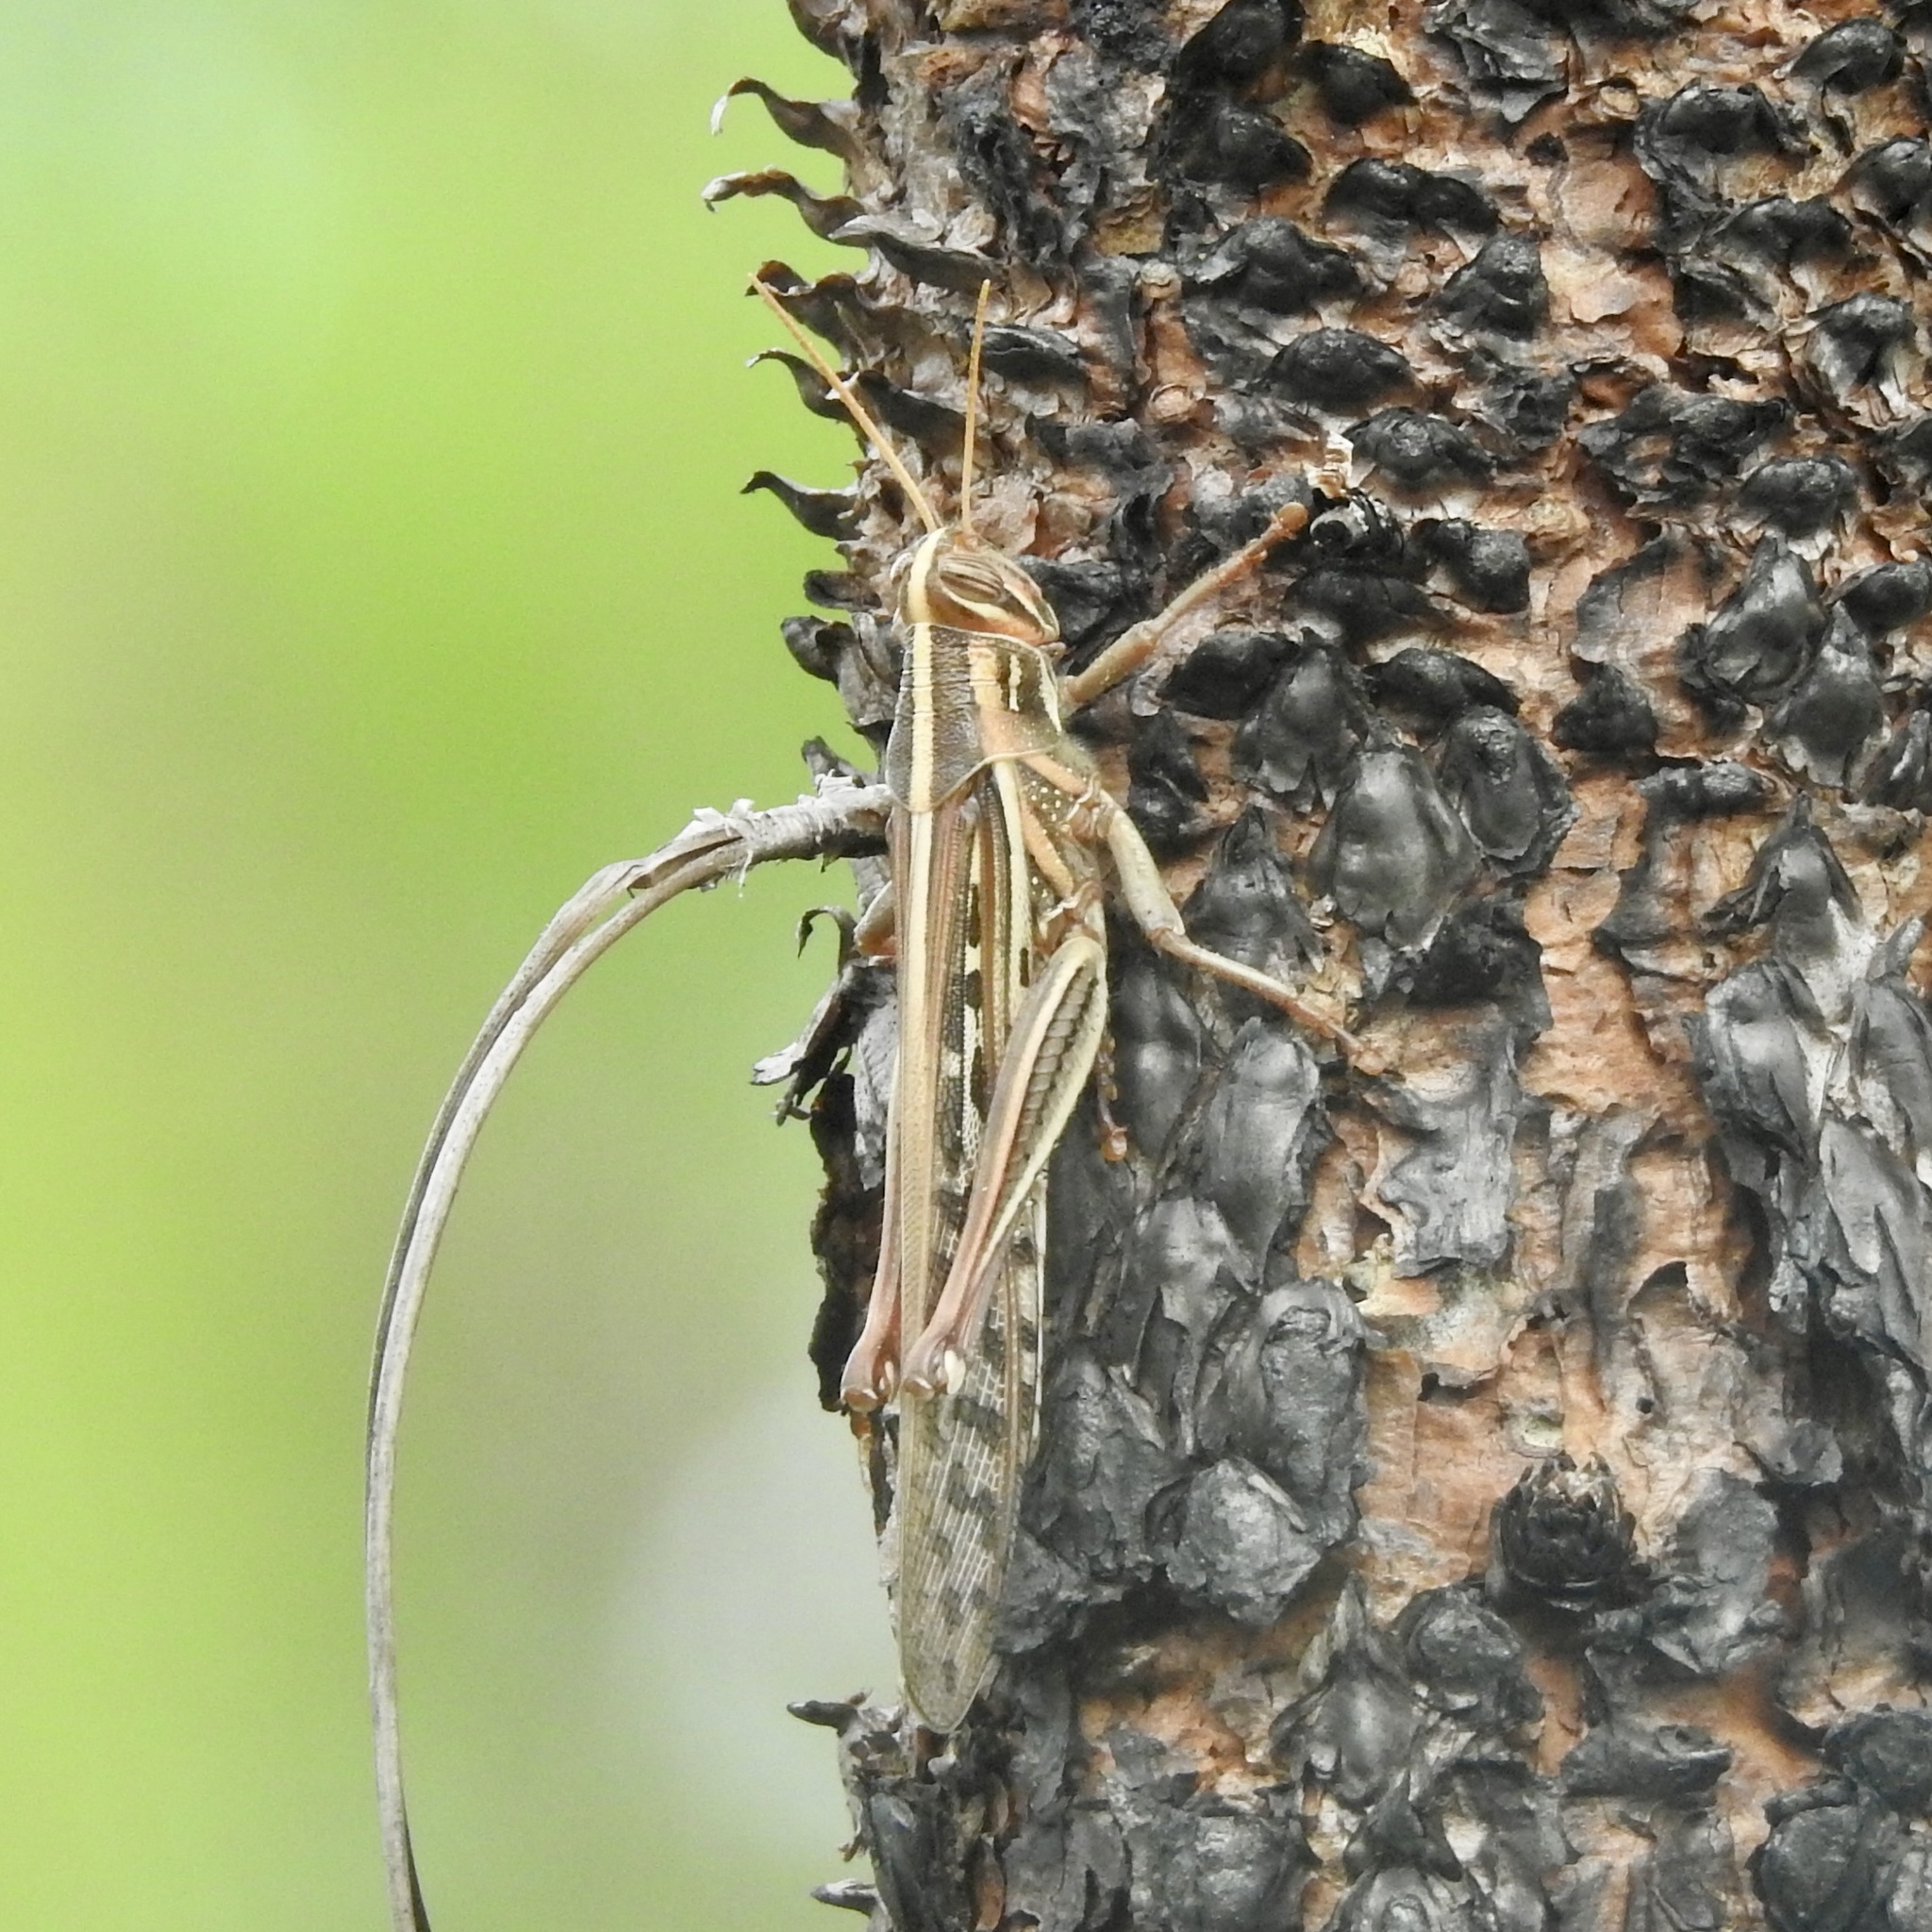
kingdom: Animalia
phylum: Arthropoda
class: Insecta
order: Orthoptera
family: Acrididae
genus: Schistocerca
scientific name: Schistocerca americana
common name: American bird locust
